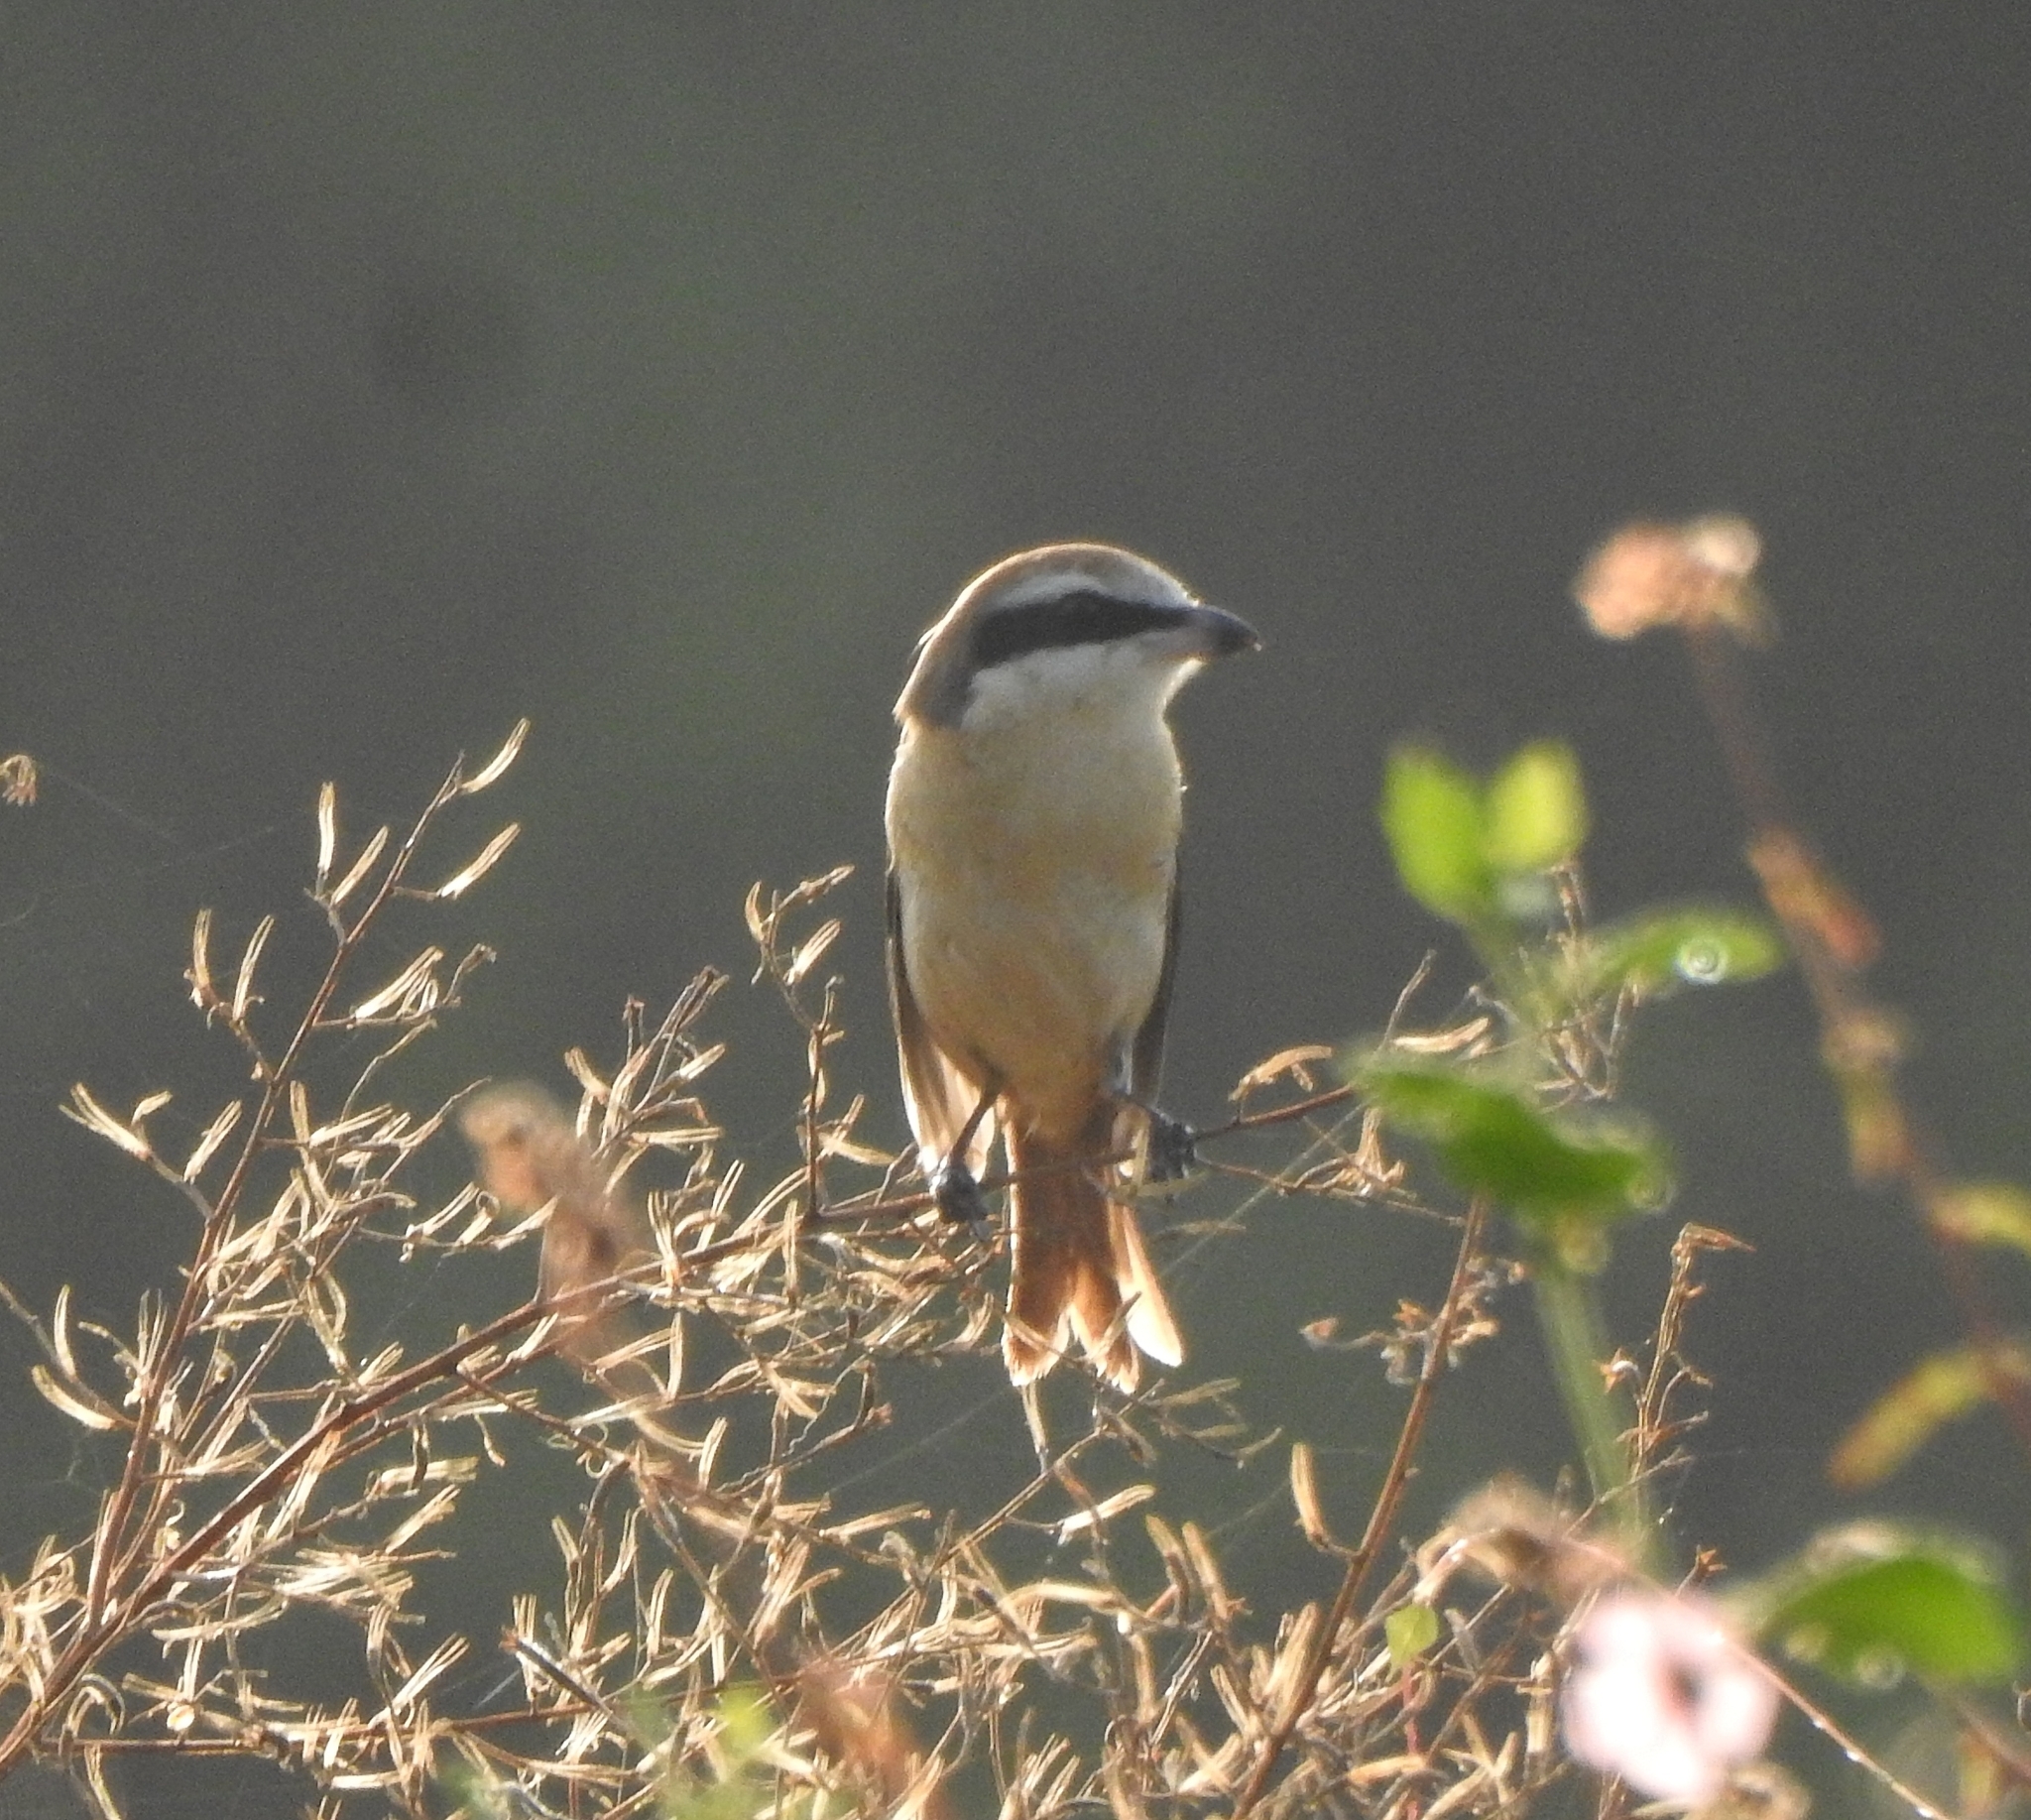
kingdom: Animalia
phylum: Chordata
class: Aves
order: Passeriformes
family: Laniidae
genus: Lanius
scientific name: Lanius cristatus
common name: Brown shrike
